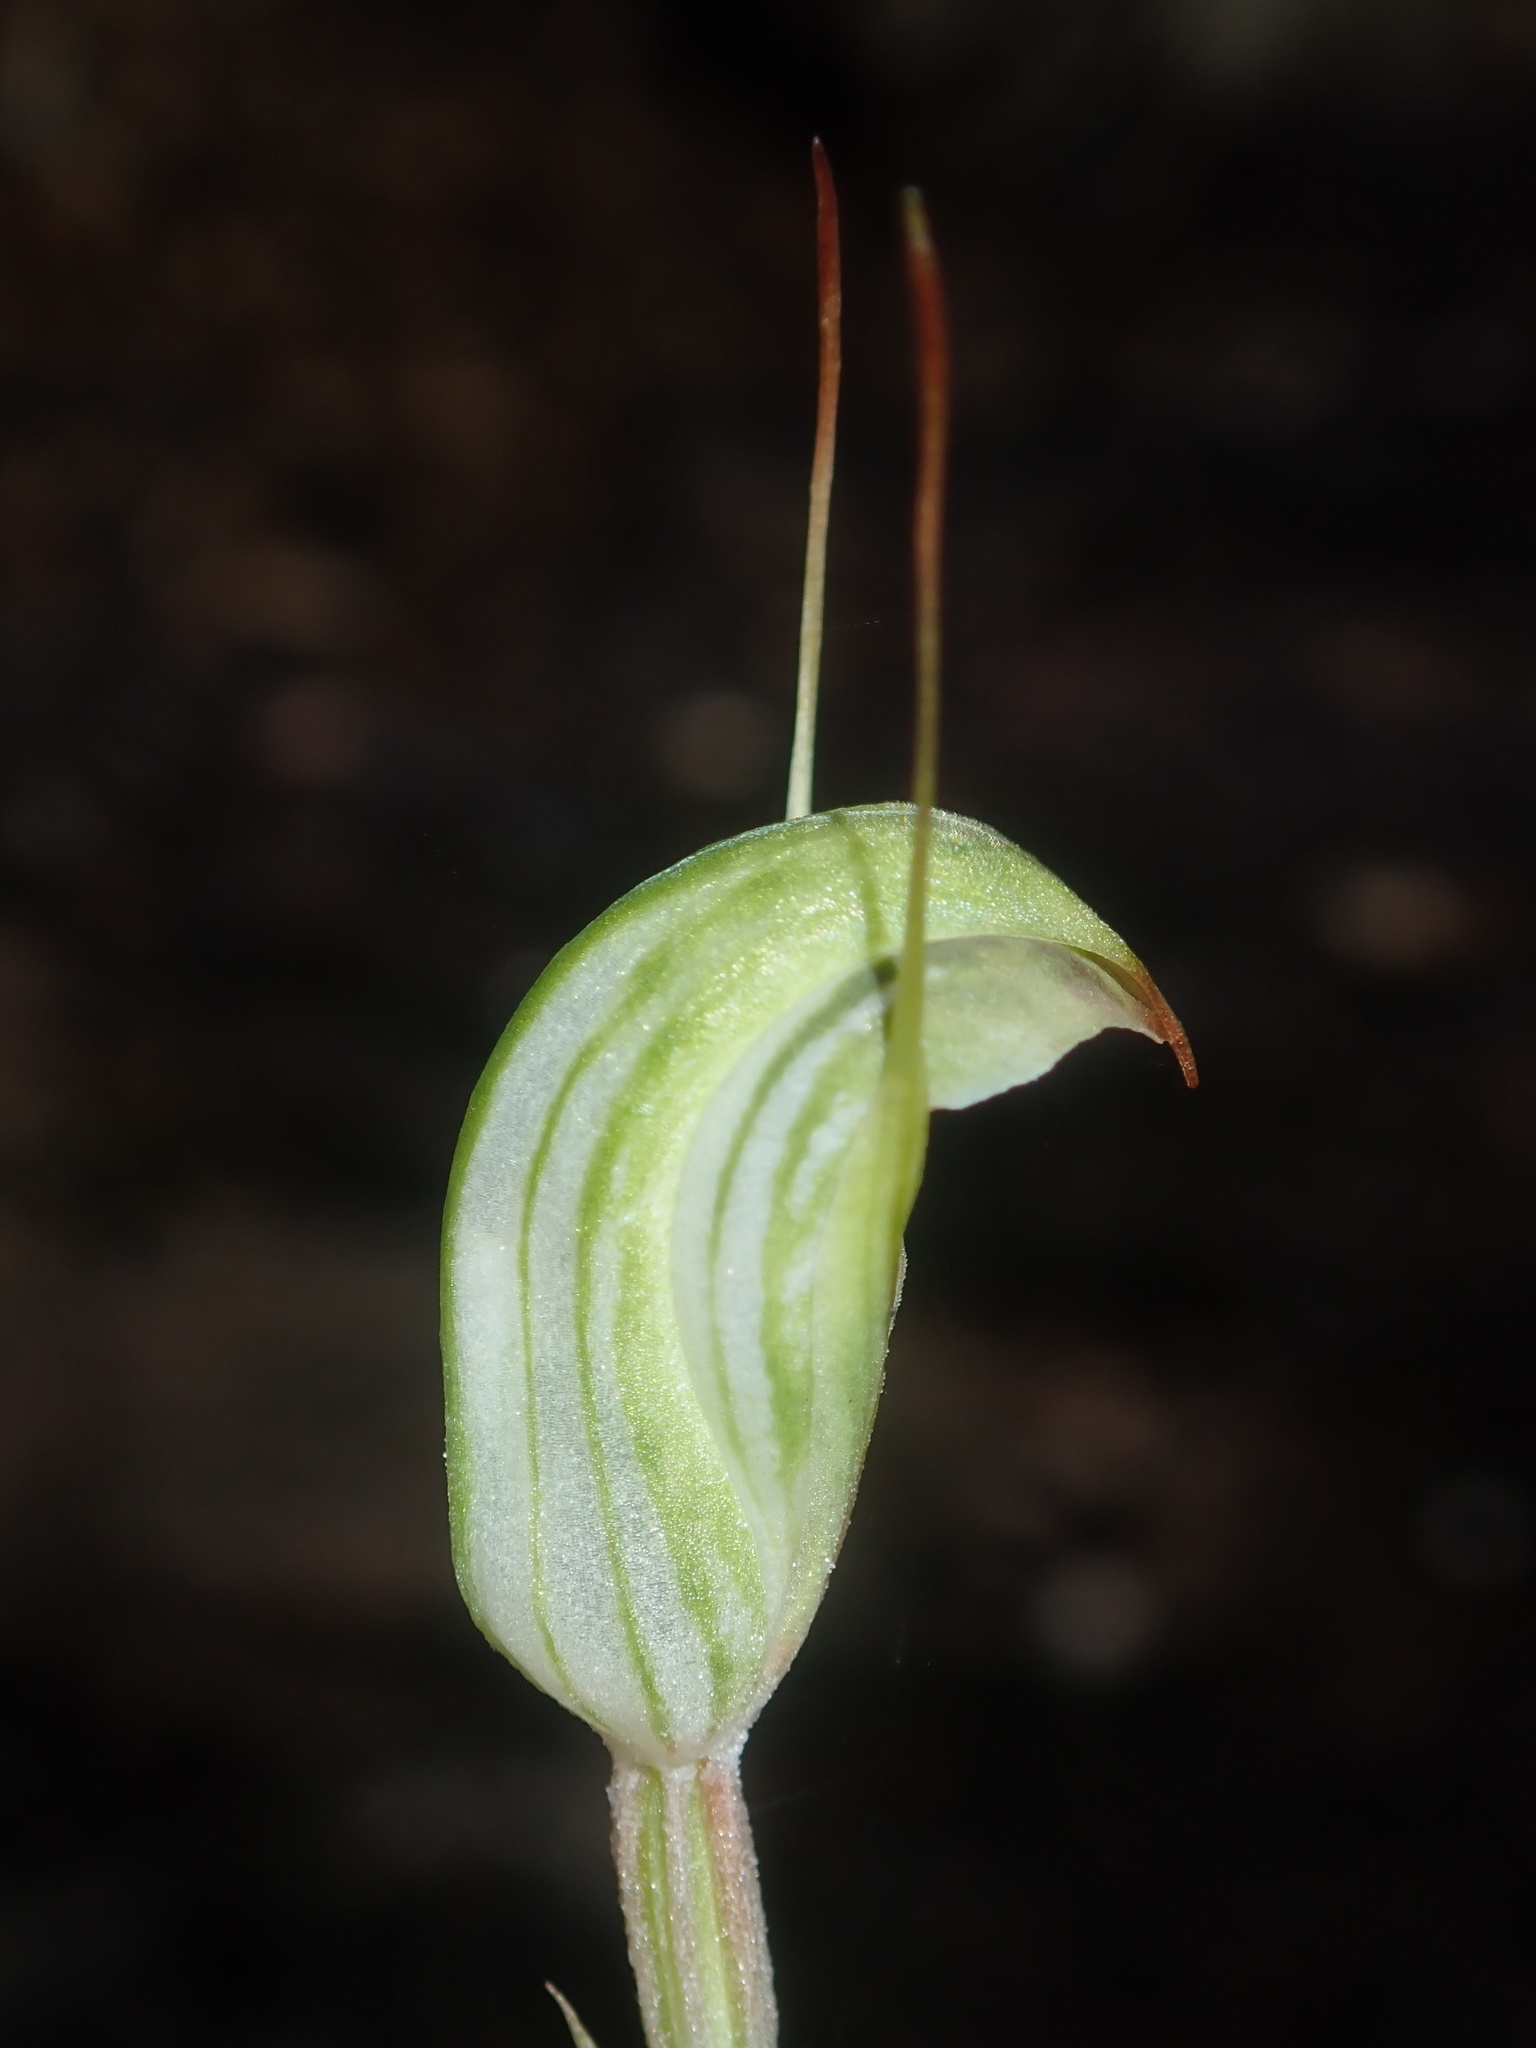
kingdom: Plantae
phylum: Tracheophyta
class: Liliopsida
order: Asparagales
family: Orchidaceae
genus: Pterostylis
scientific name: Pterostylis concinna
